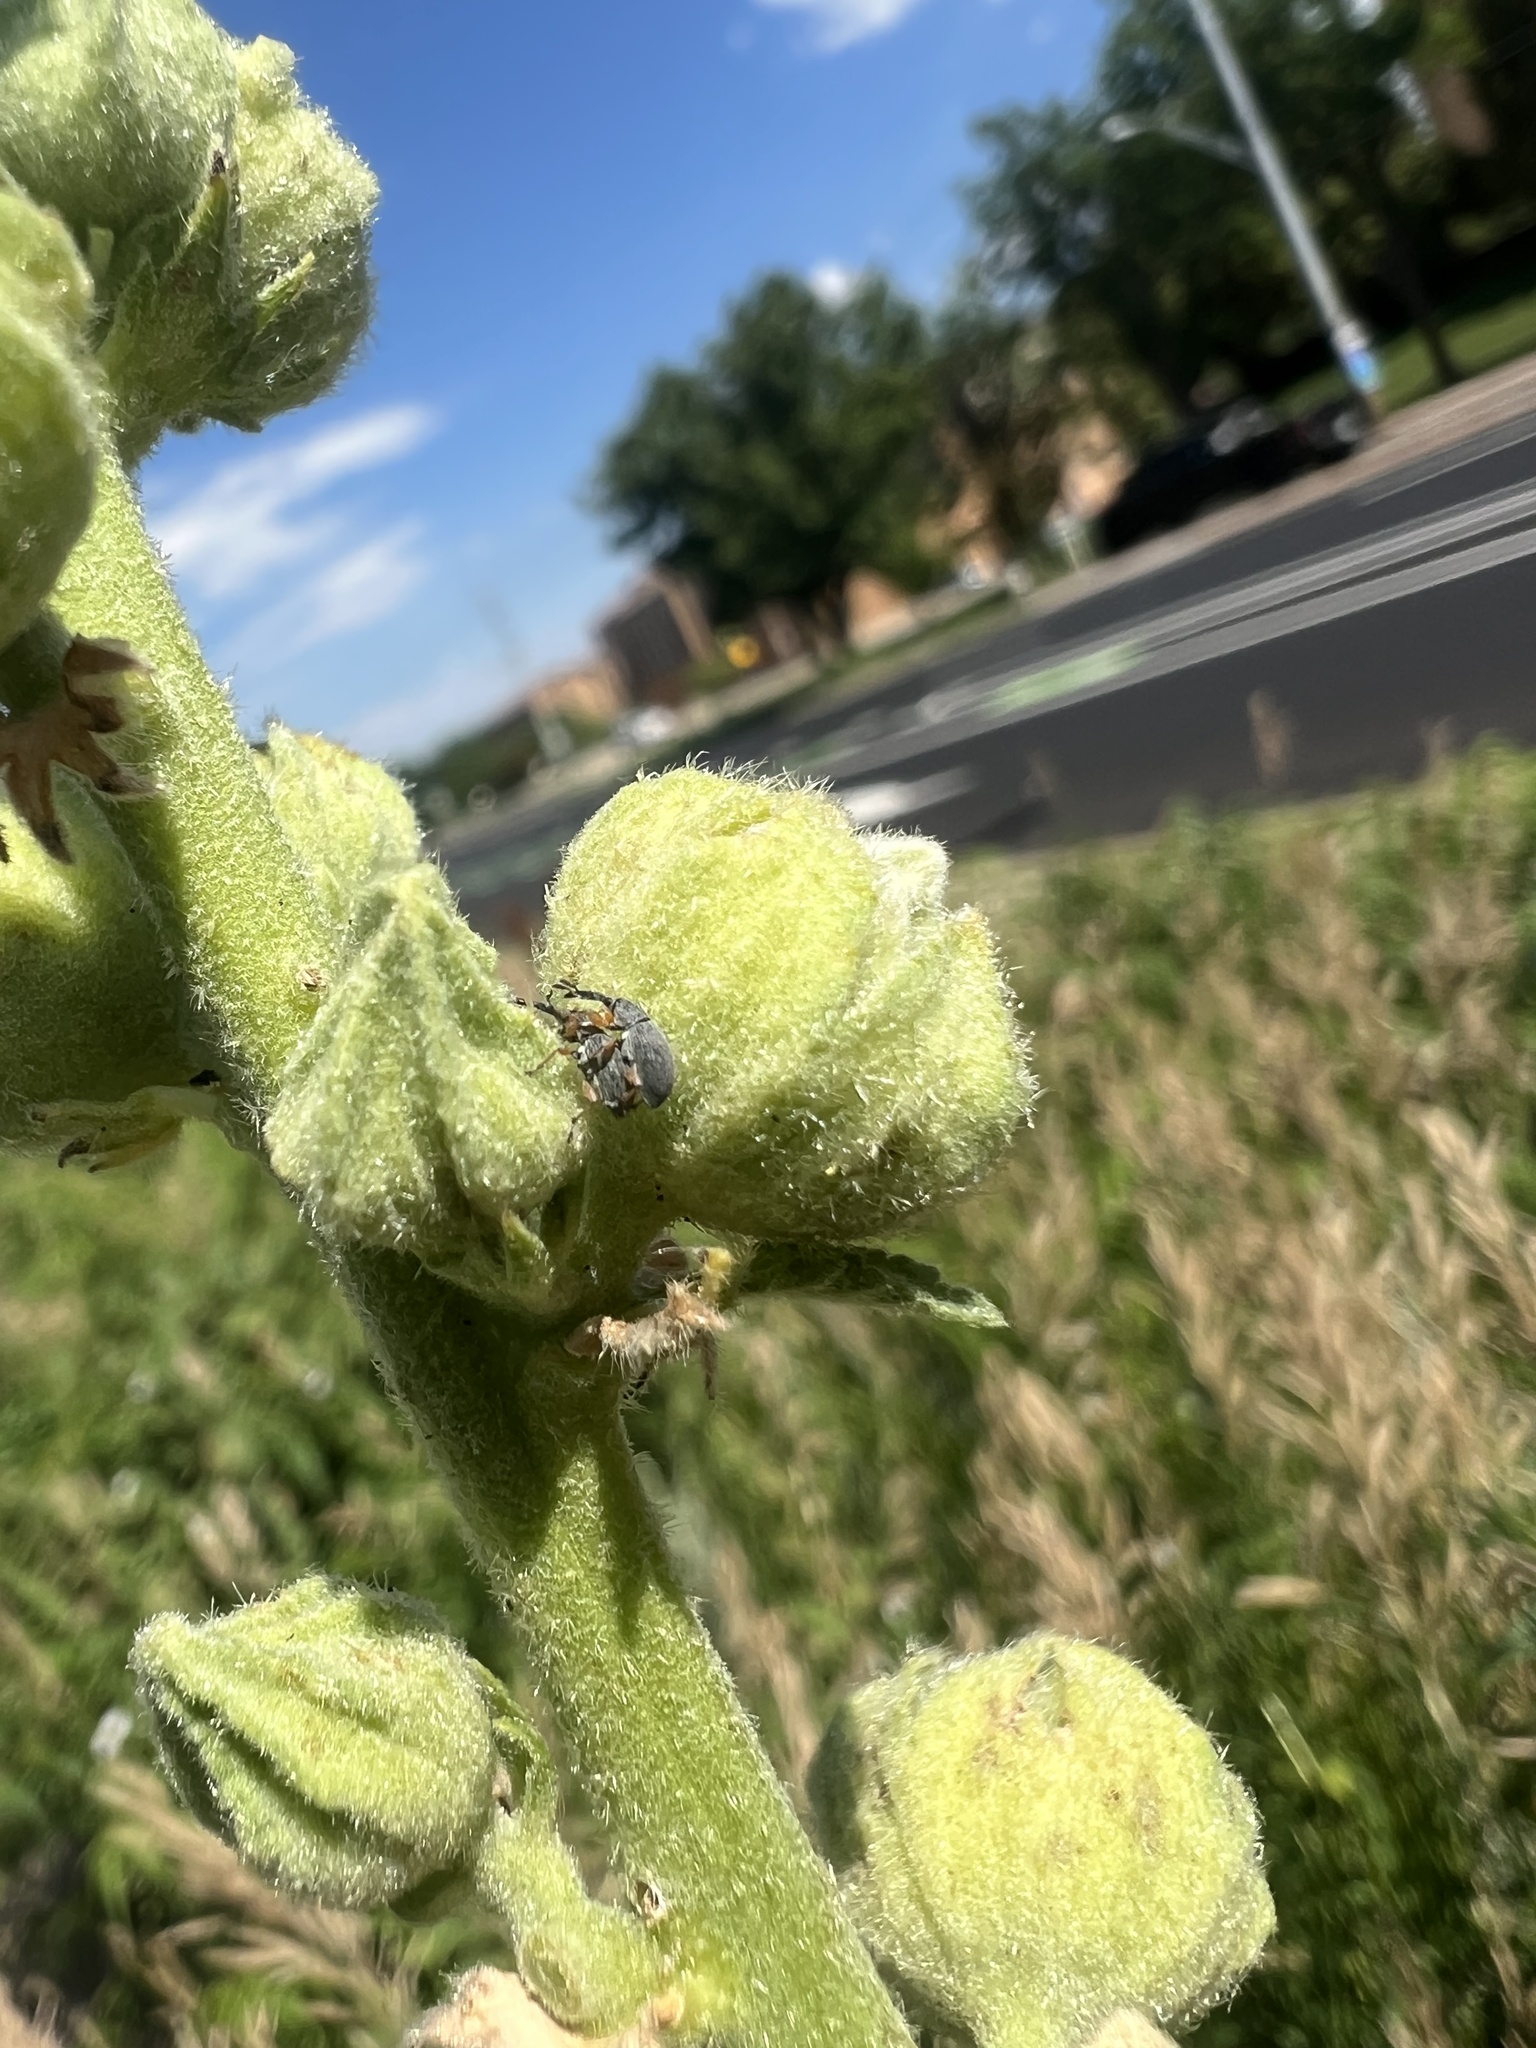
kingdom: Animalia
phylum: Arthropoda
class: Insecta
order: Coleoptera
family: Brentidae
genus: Rhopalapion
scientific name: Rhopalapion longirostre
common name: Hollyhock weevil
